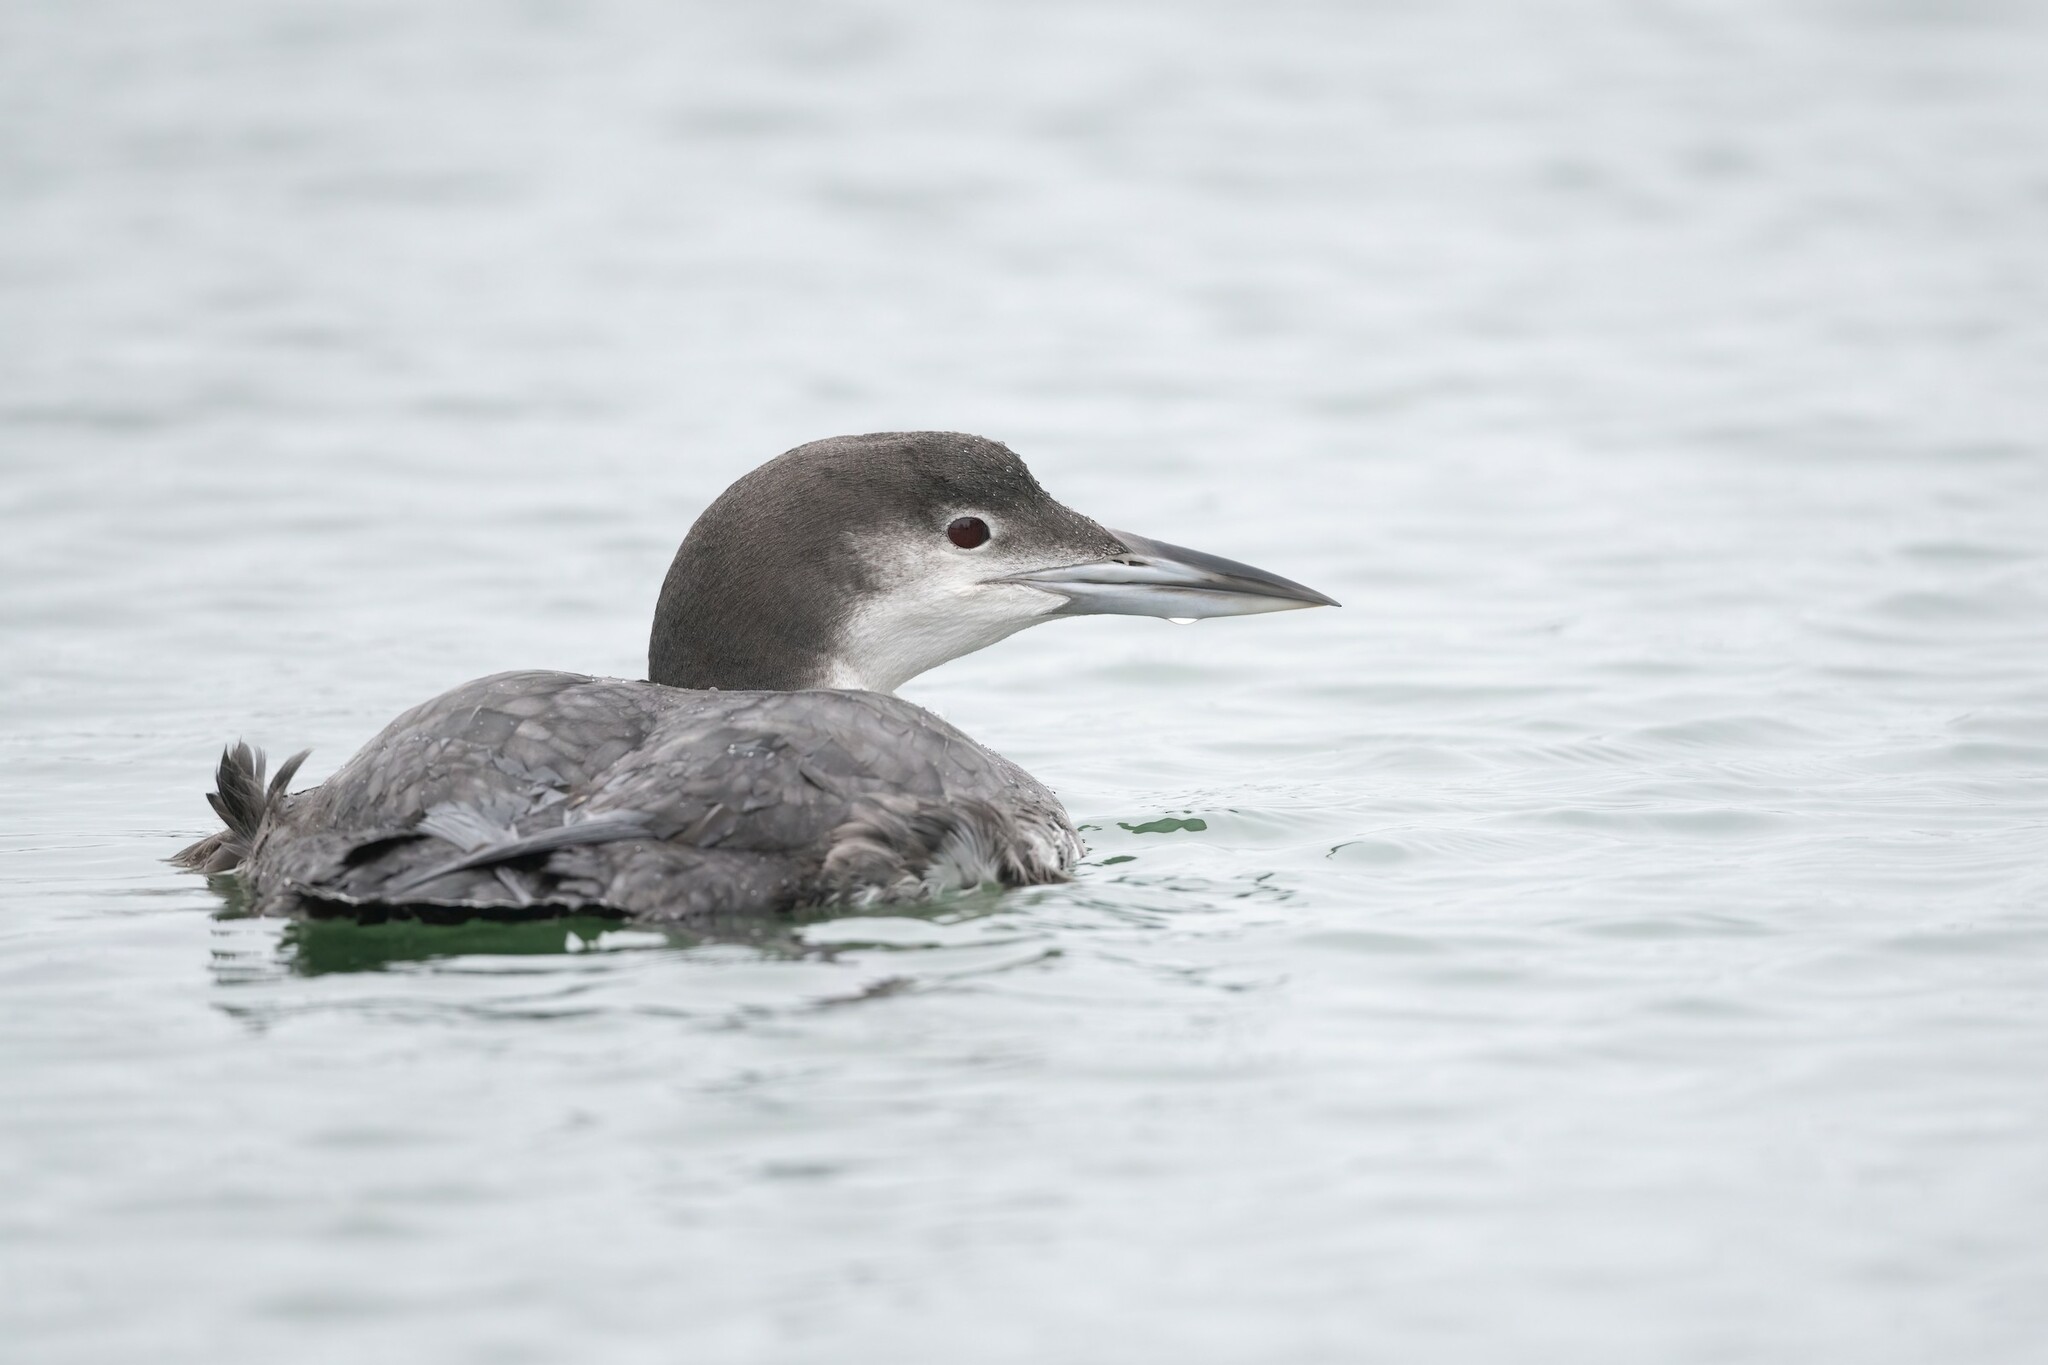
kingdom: Animalia
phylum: Chordata
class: Aves
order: Gaviiformes
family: Gaviidae
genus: Gavia
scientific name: Gavia immer
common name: Common loon
